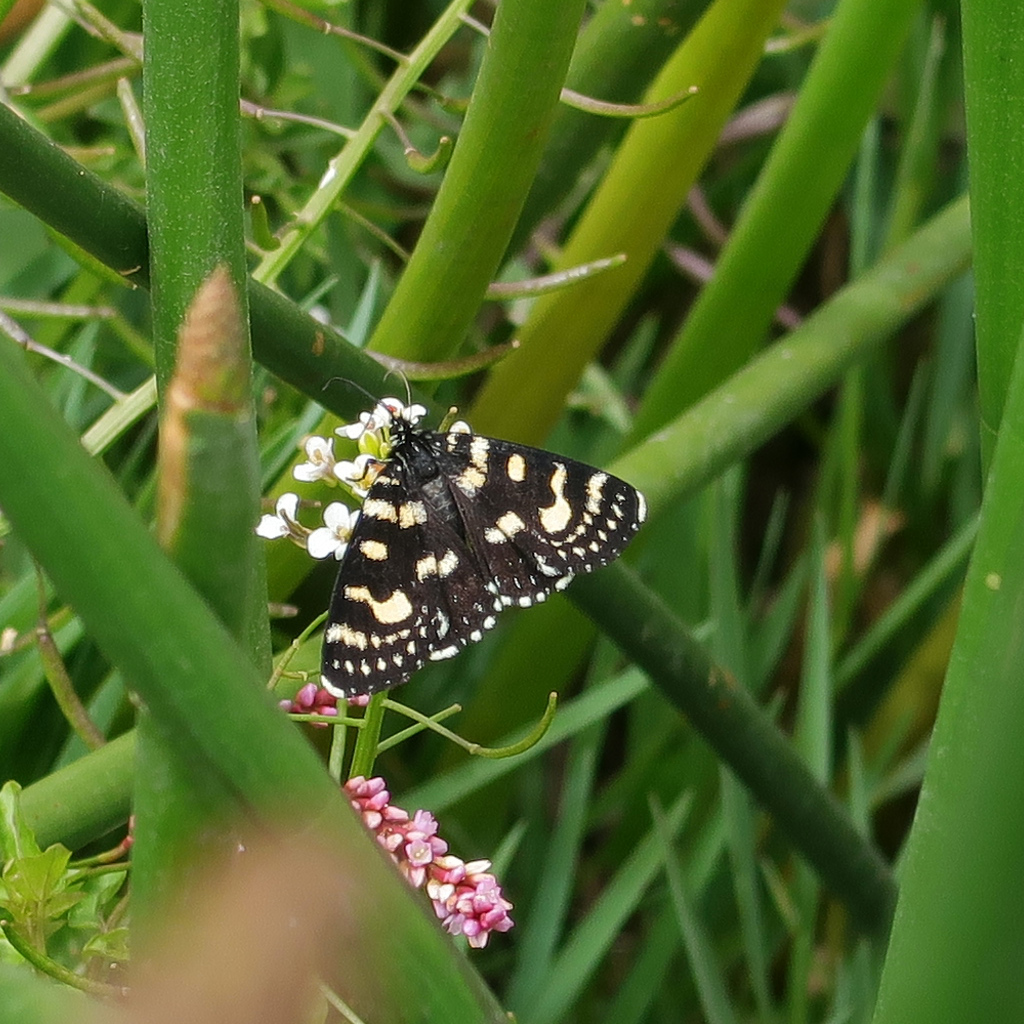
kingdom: Animalia
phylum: Arthropoda
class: Insecta
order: Lepidoptera
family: Noctuidae
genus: Phalaenoides
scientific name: Phalaenoides tristifica
